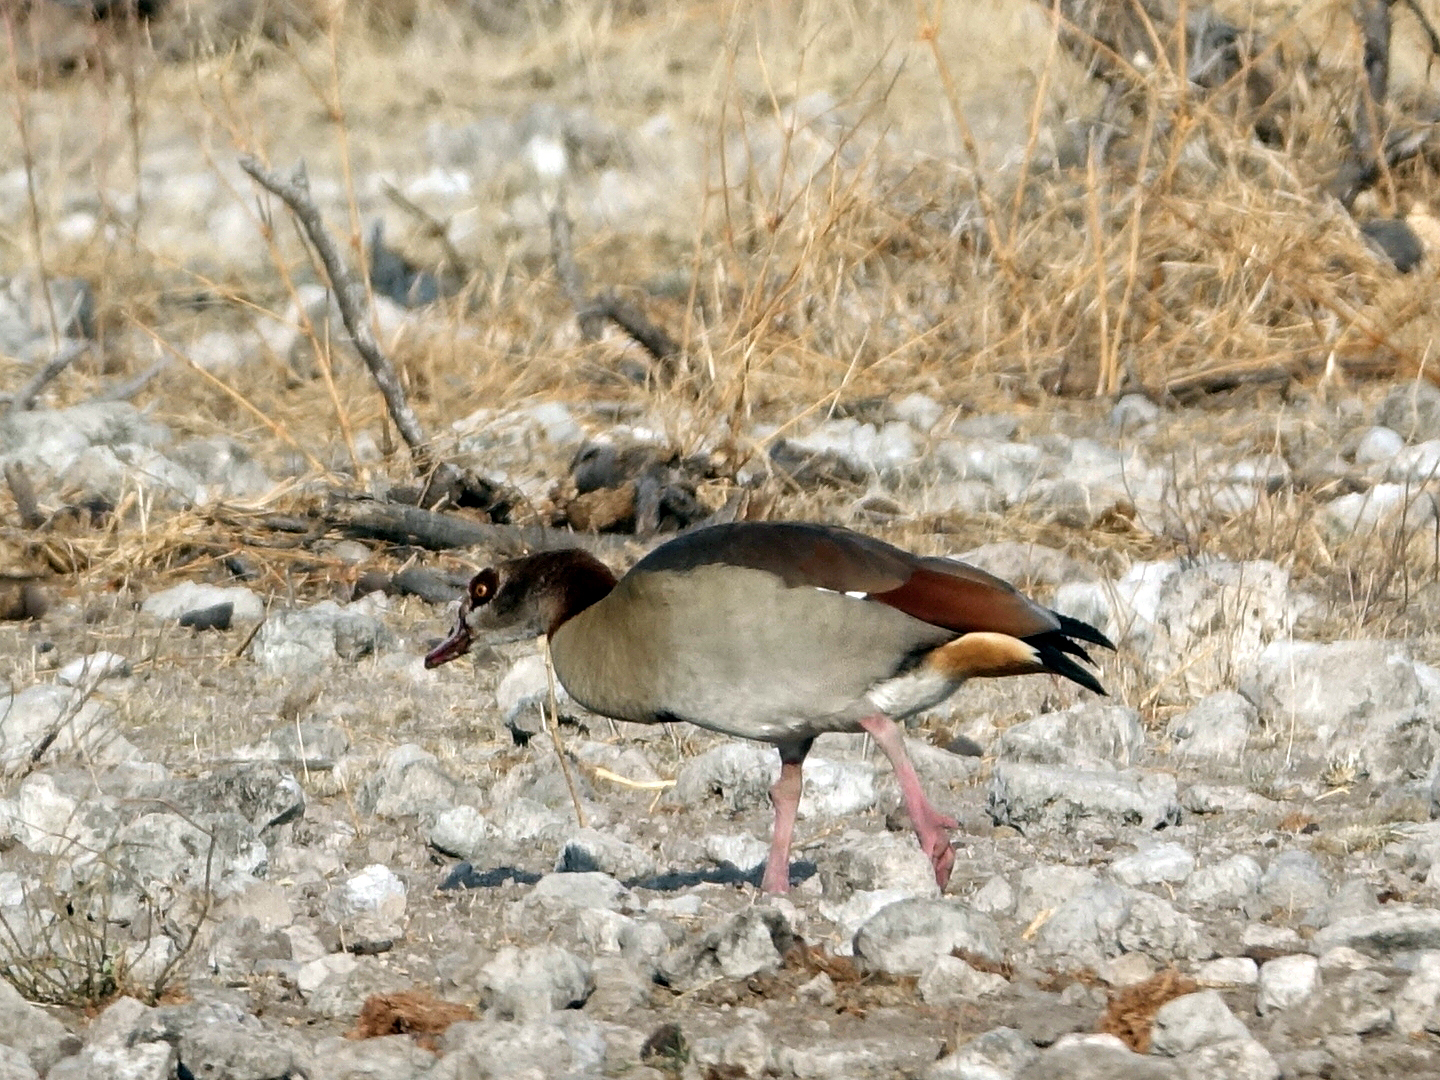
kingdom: Animalia
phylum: Chordata
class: Aves
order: Anseriformes
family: Anatidae
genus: Alopochen
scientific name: Alopochen aegyptiaca
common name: Egyptian goose
